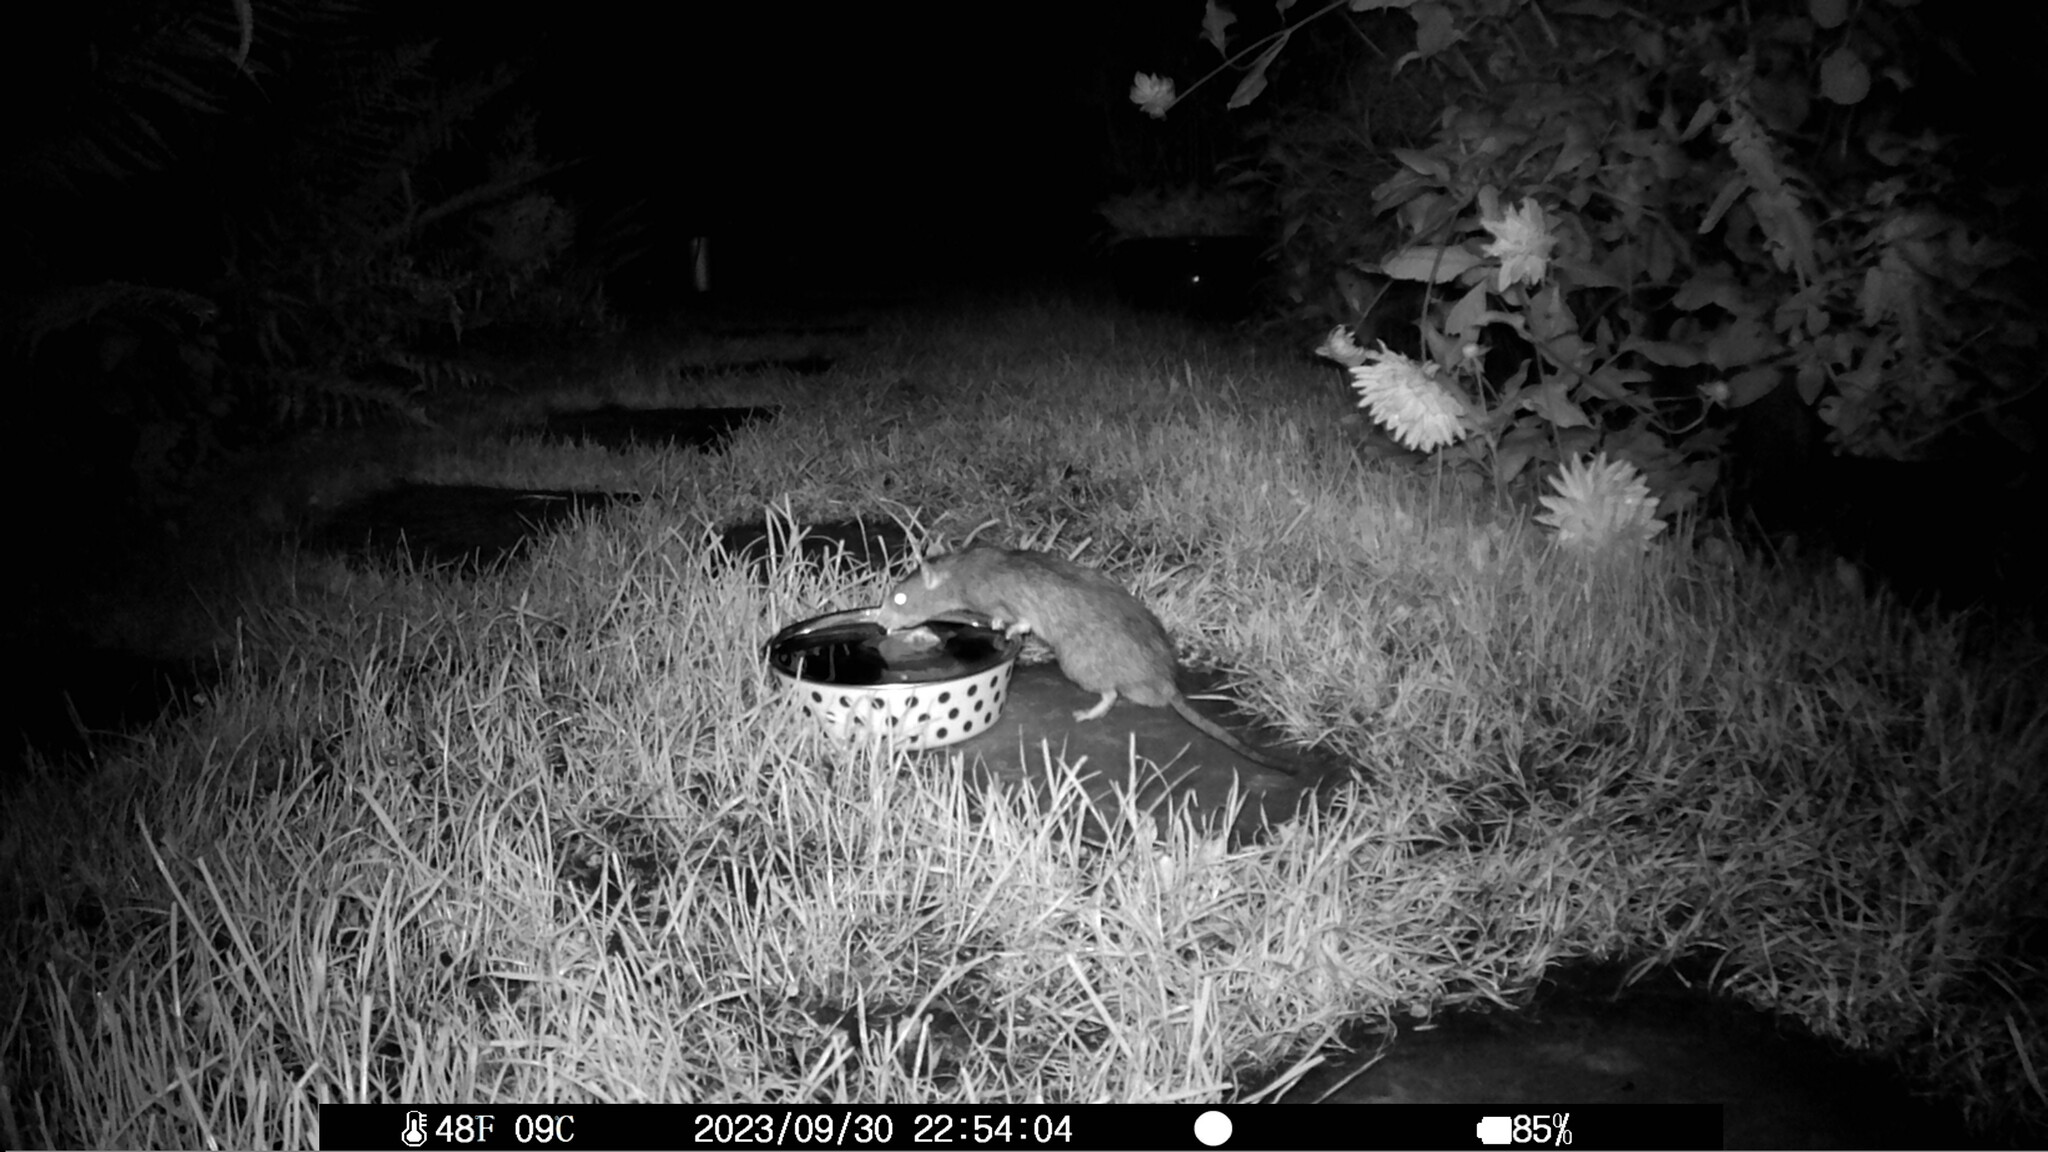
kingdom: Animalia
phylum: Chordata
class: Mammalia
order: Rodentia
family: Muridae
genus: Rattus
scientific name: Rattus norvegicus
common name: Brown rat
